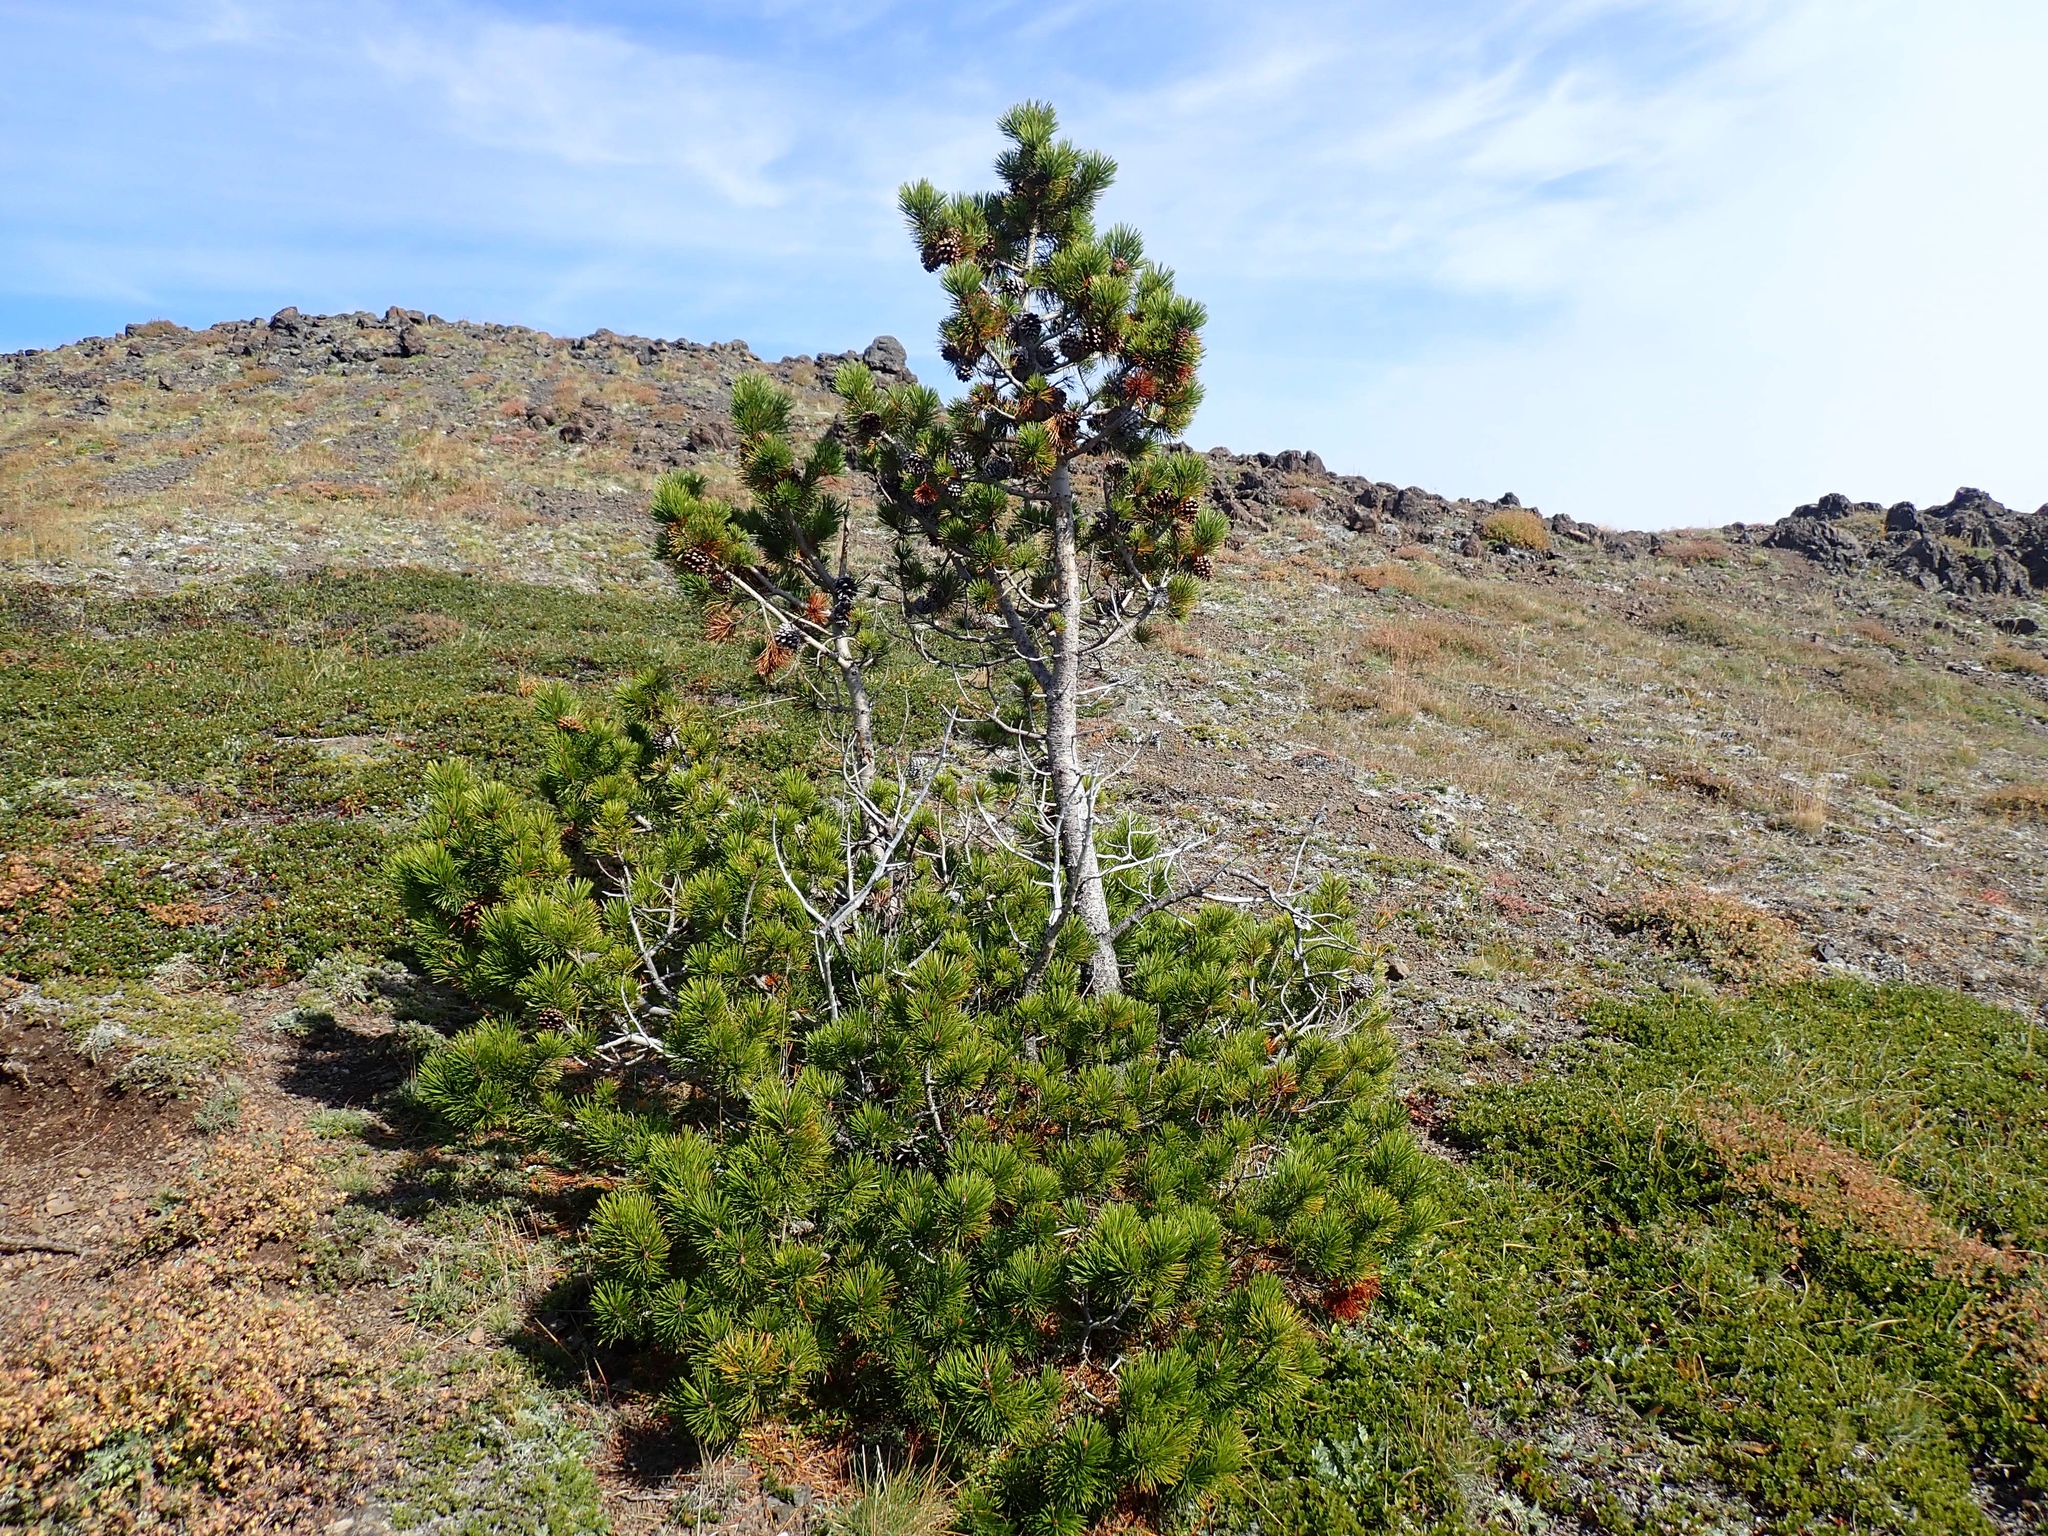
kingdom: Plantae
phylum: Tracheophyta
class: Pinopsida
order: Pinales
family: Pinaceae
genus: Pinus
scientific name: Pinus contorta
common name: Lodgepole pine
